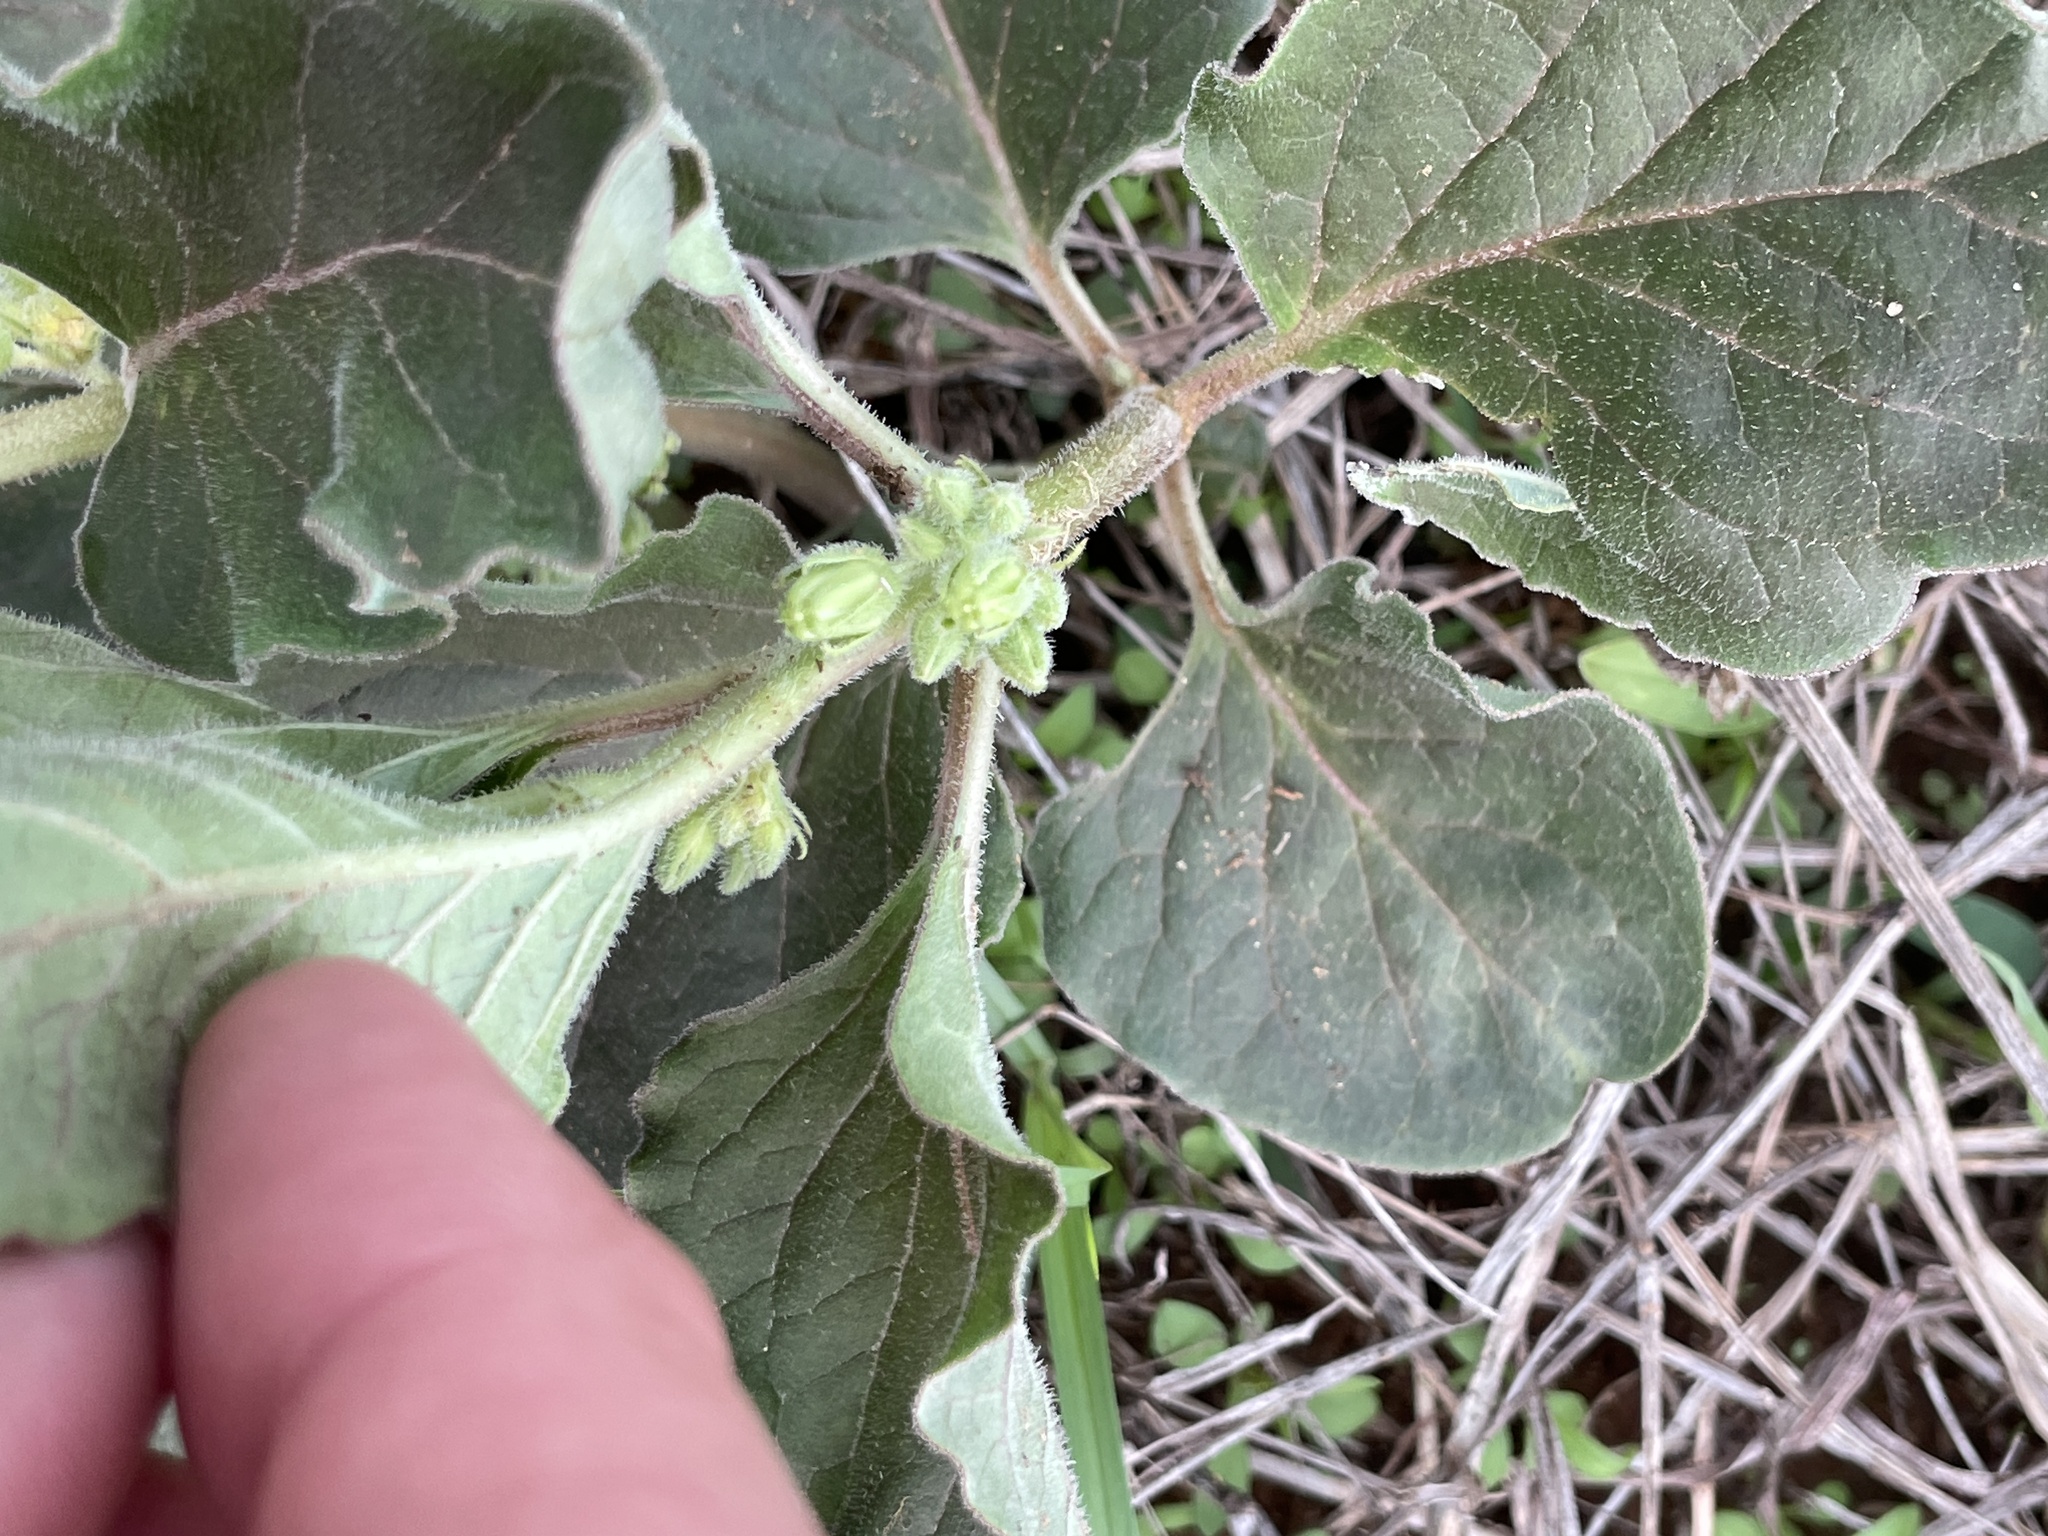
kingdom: Plantae
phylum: Tracheophyta
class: Magnoliopsida
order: Gentianales
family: Apocynaceae
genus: Asclepias
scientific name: Asclepias oenotheroides
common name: Zizotes milkweed
